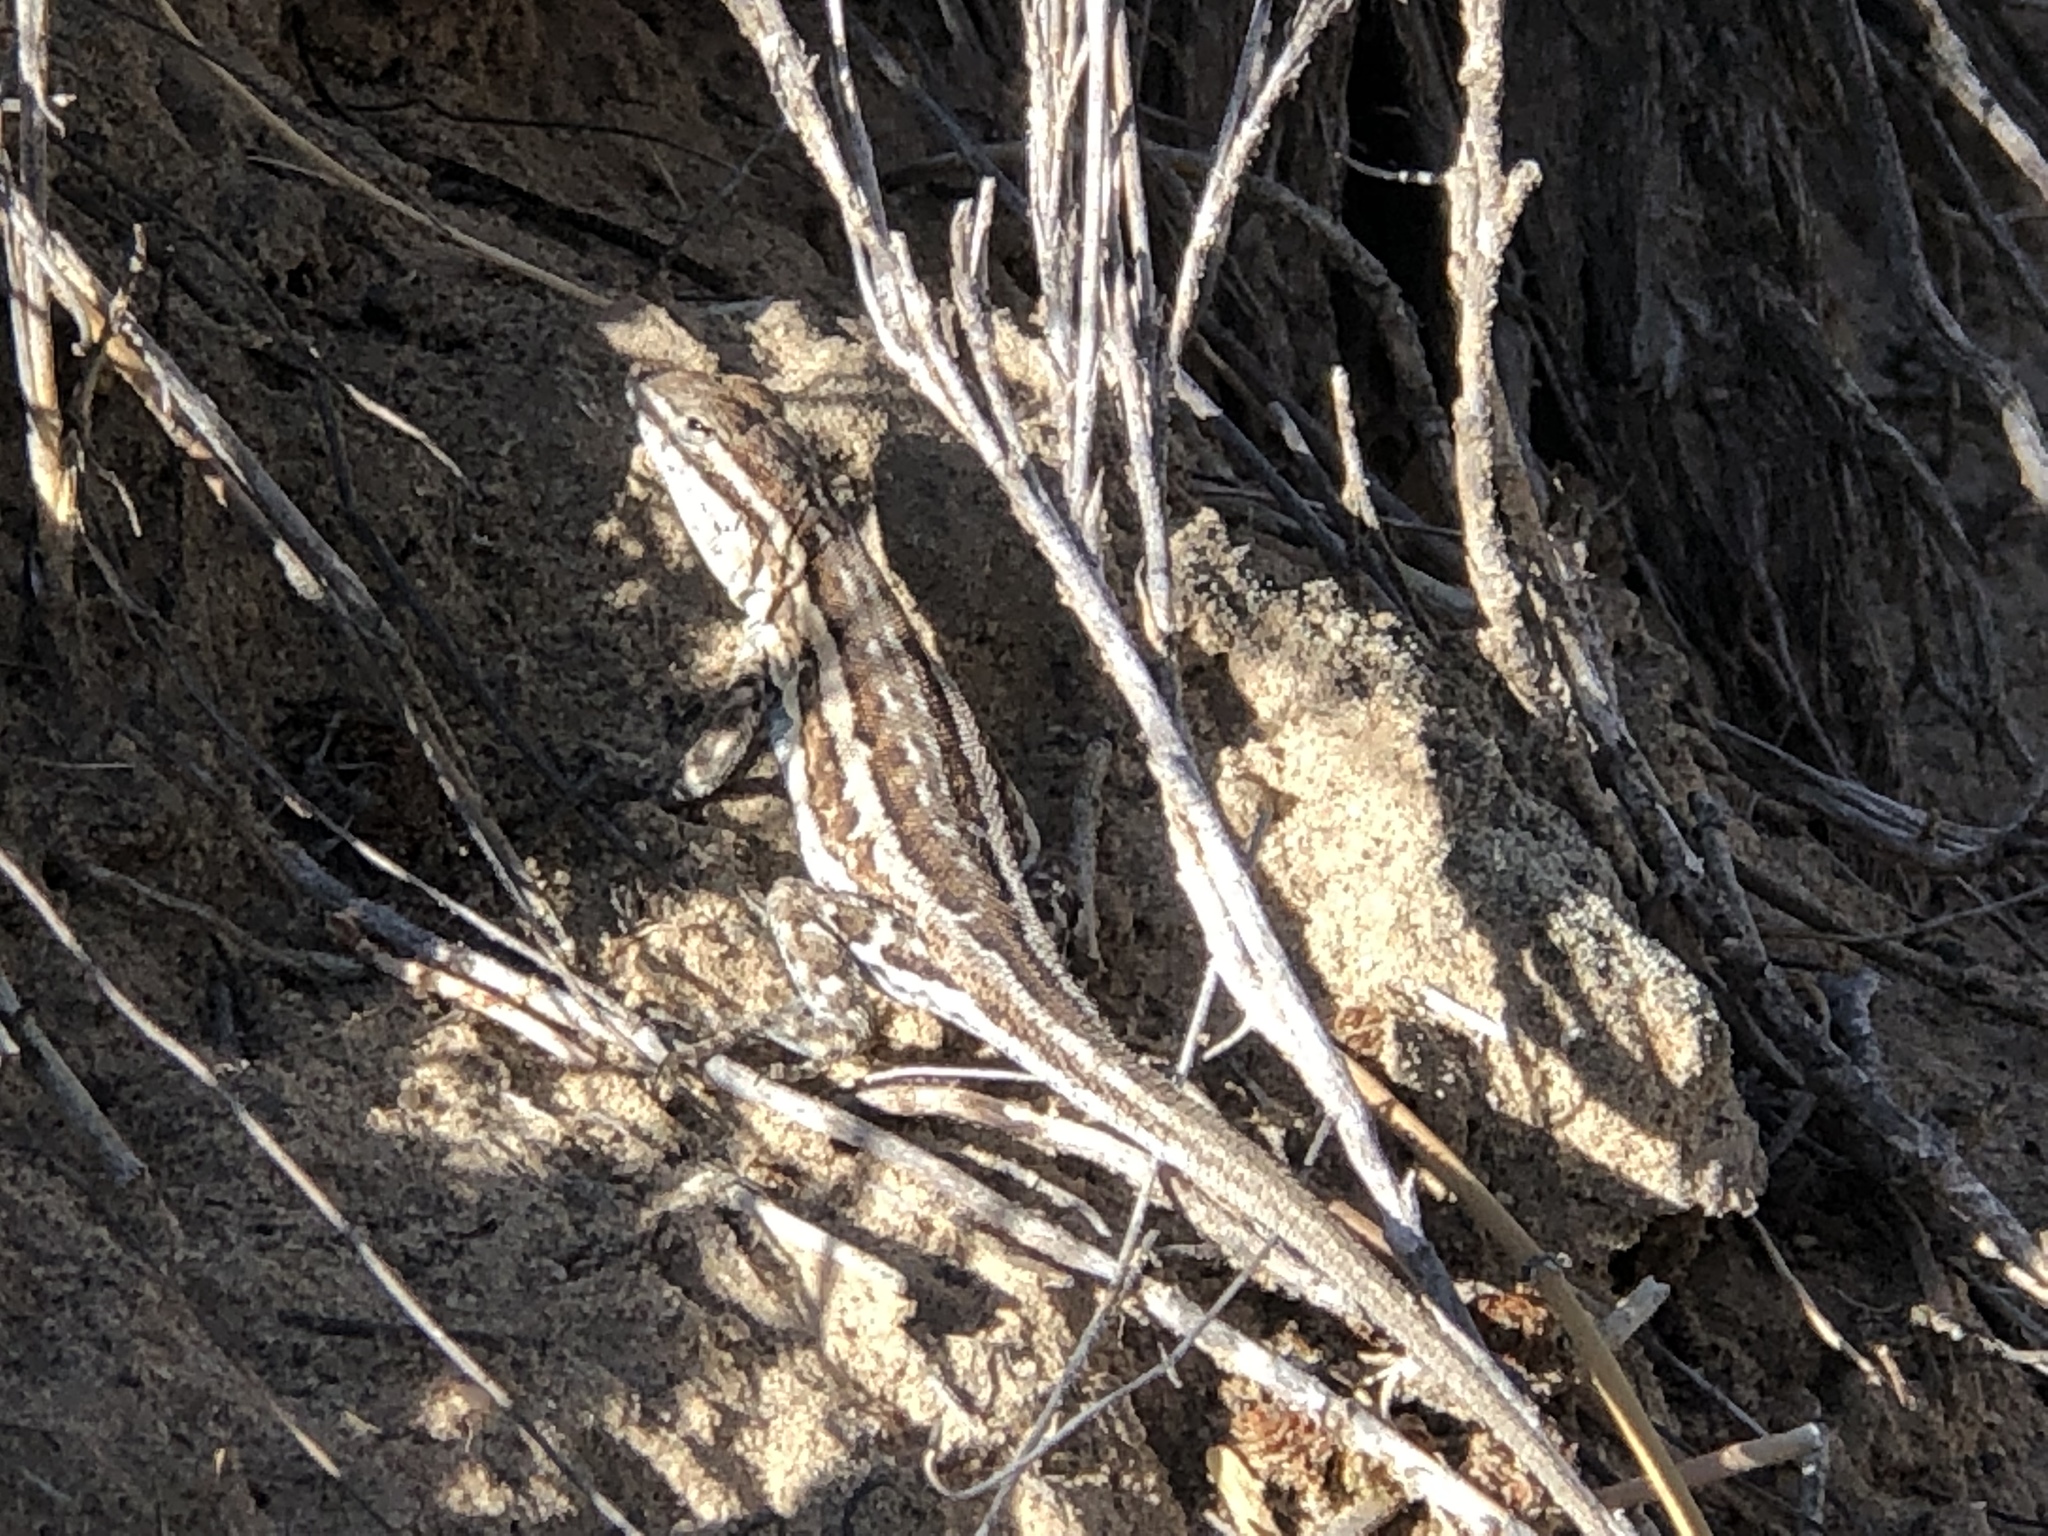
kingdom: Animalia
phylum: Chordata
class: Squamata
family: Phrynosomatidae
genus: Uta
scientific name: Uta stansburiana
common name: Side-blotched lizard
